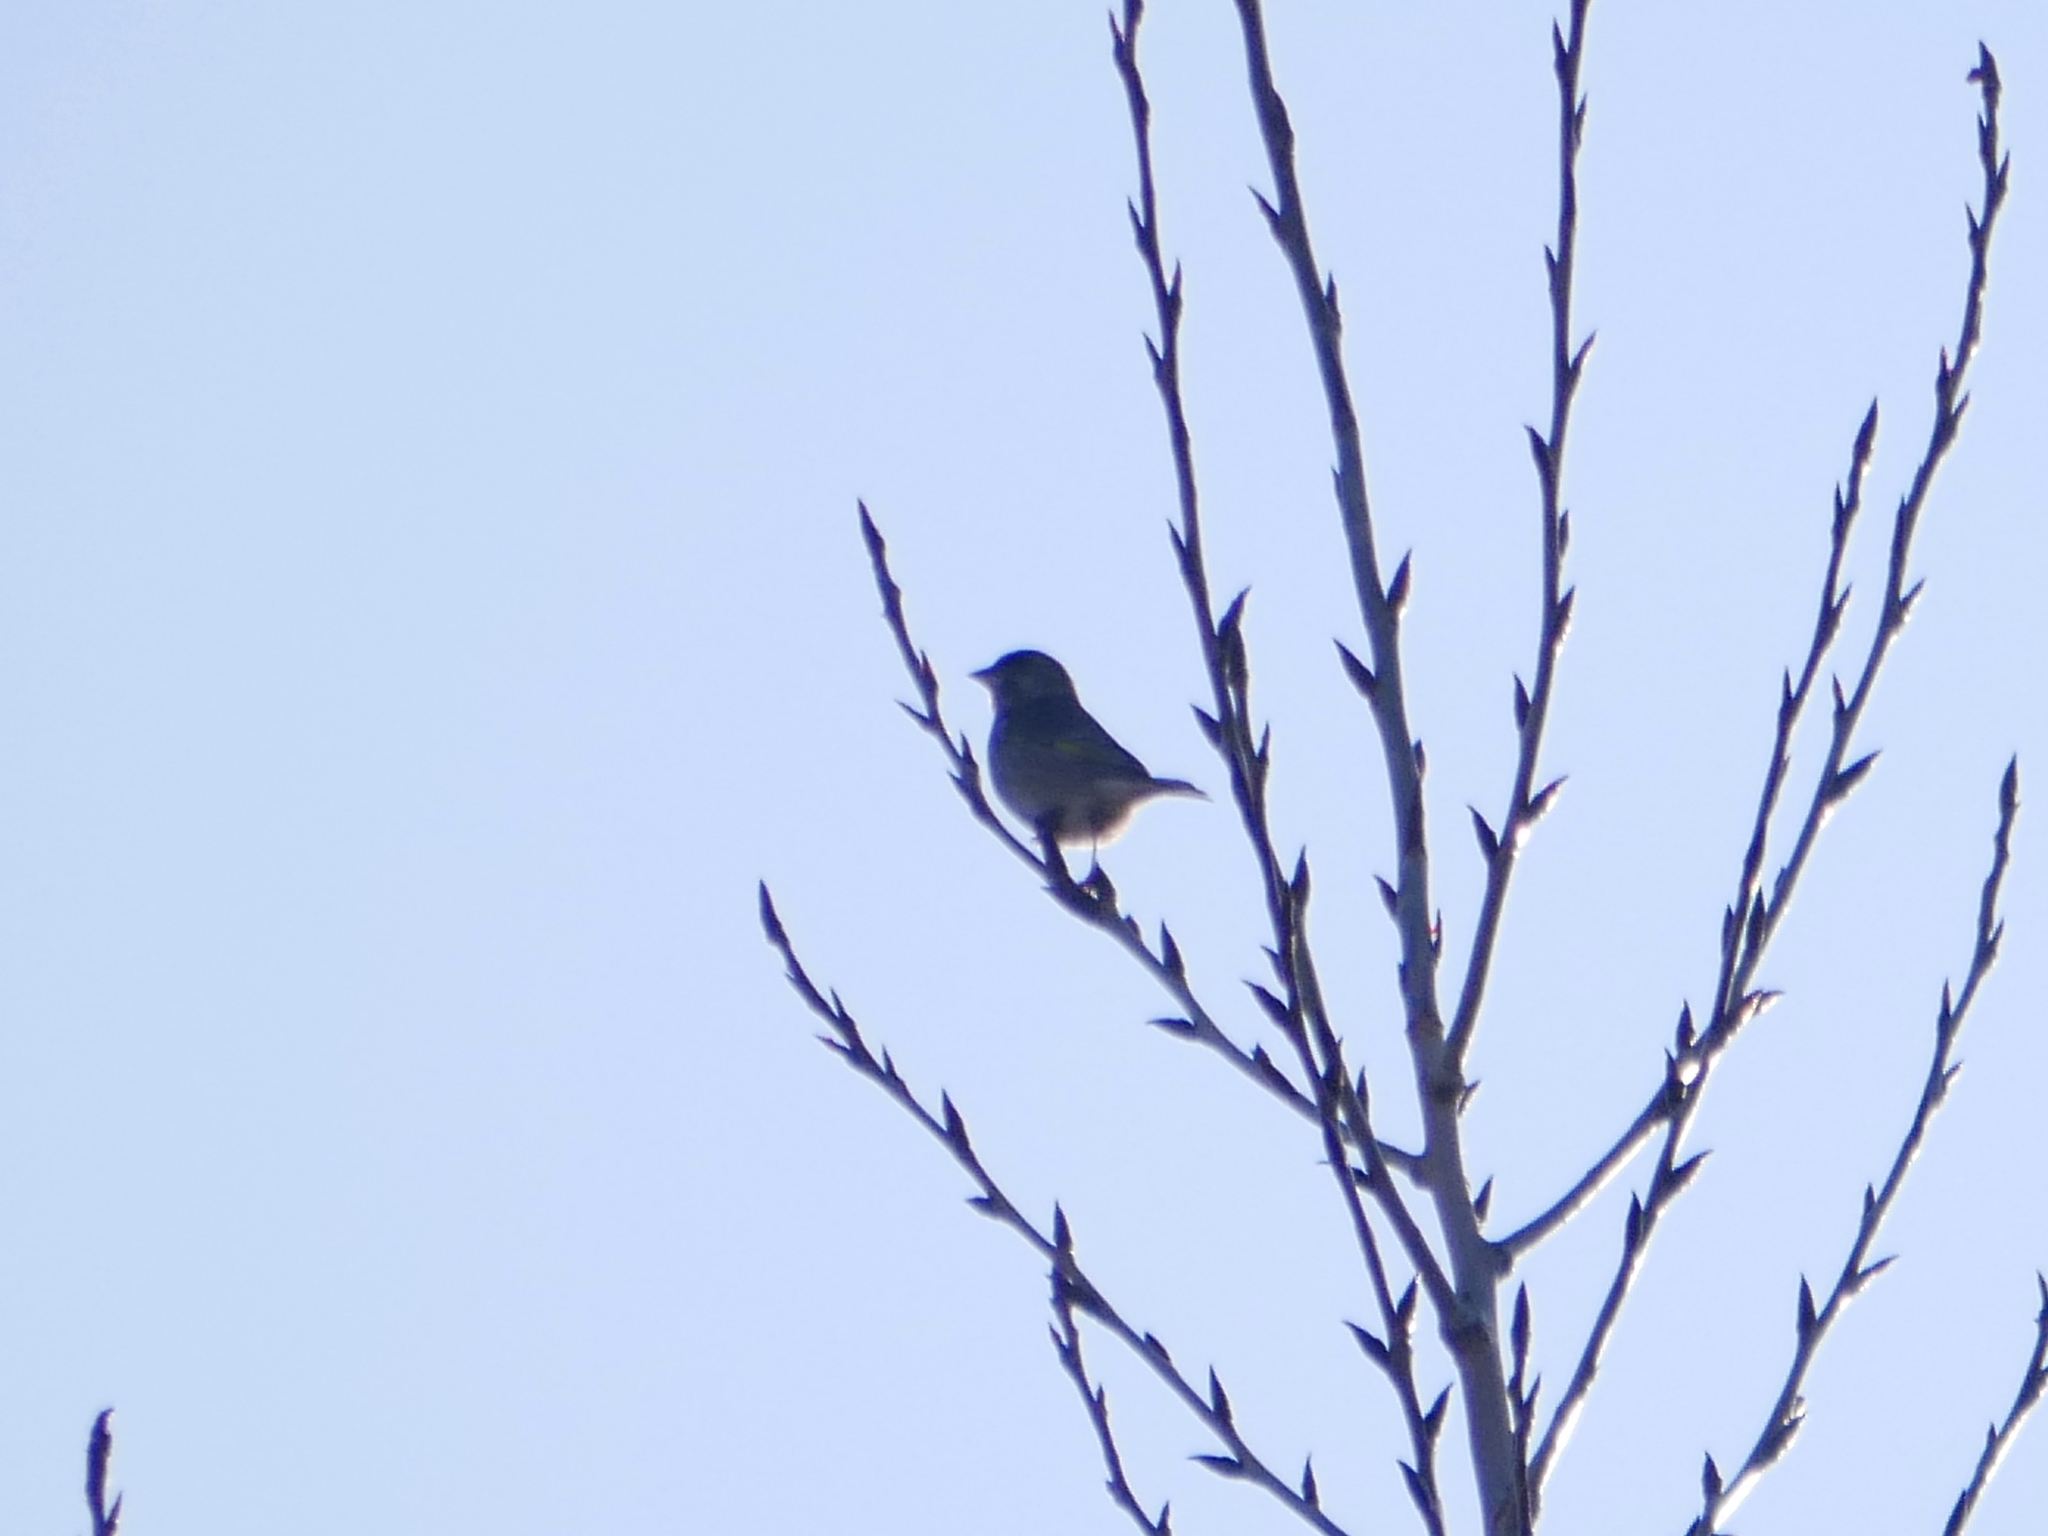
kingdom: Plantae
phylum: Tracheophyta
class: Liliopsida
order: Poales
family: Poaceae
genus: Chloris
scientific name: Chloris chloris
